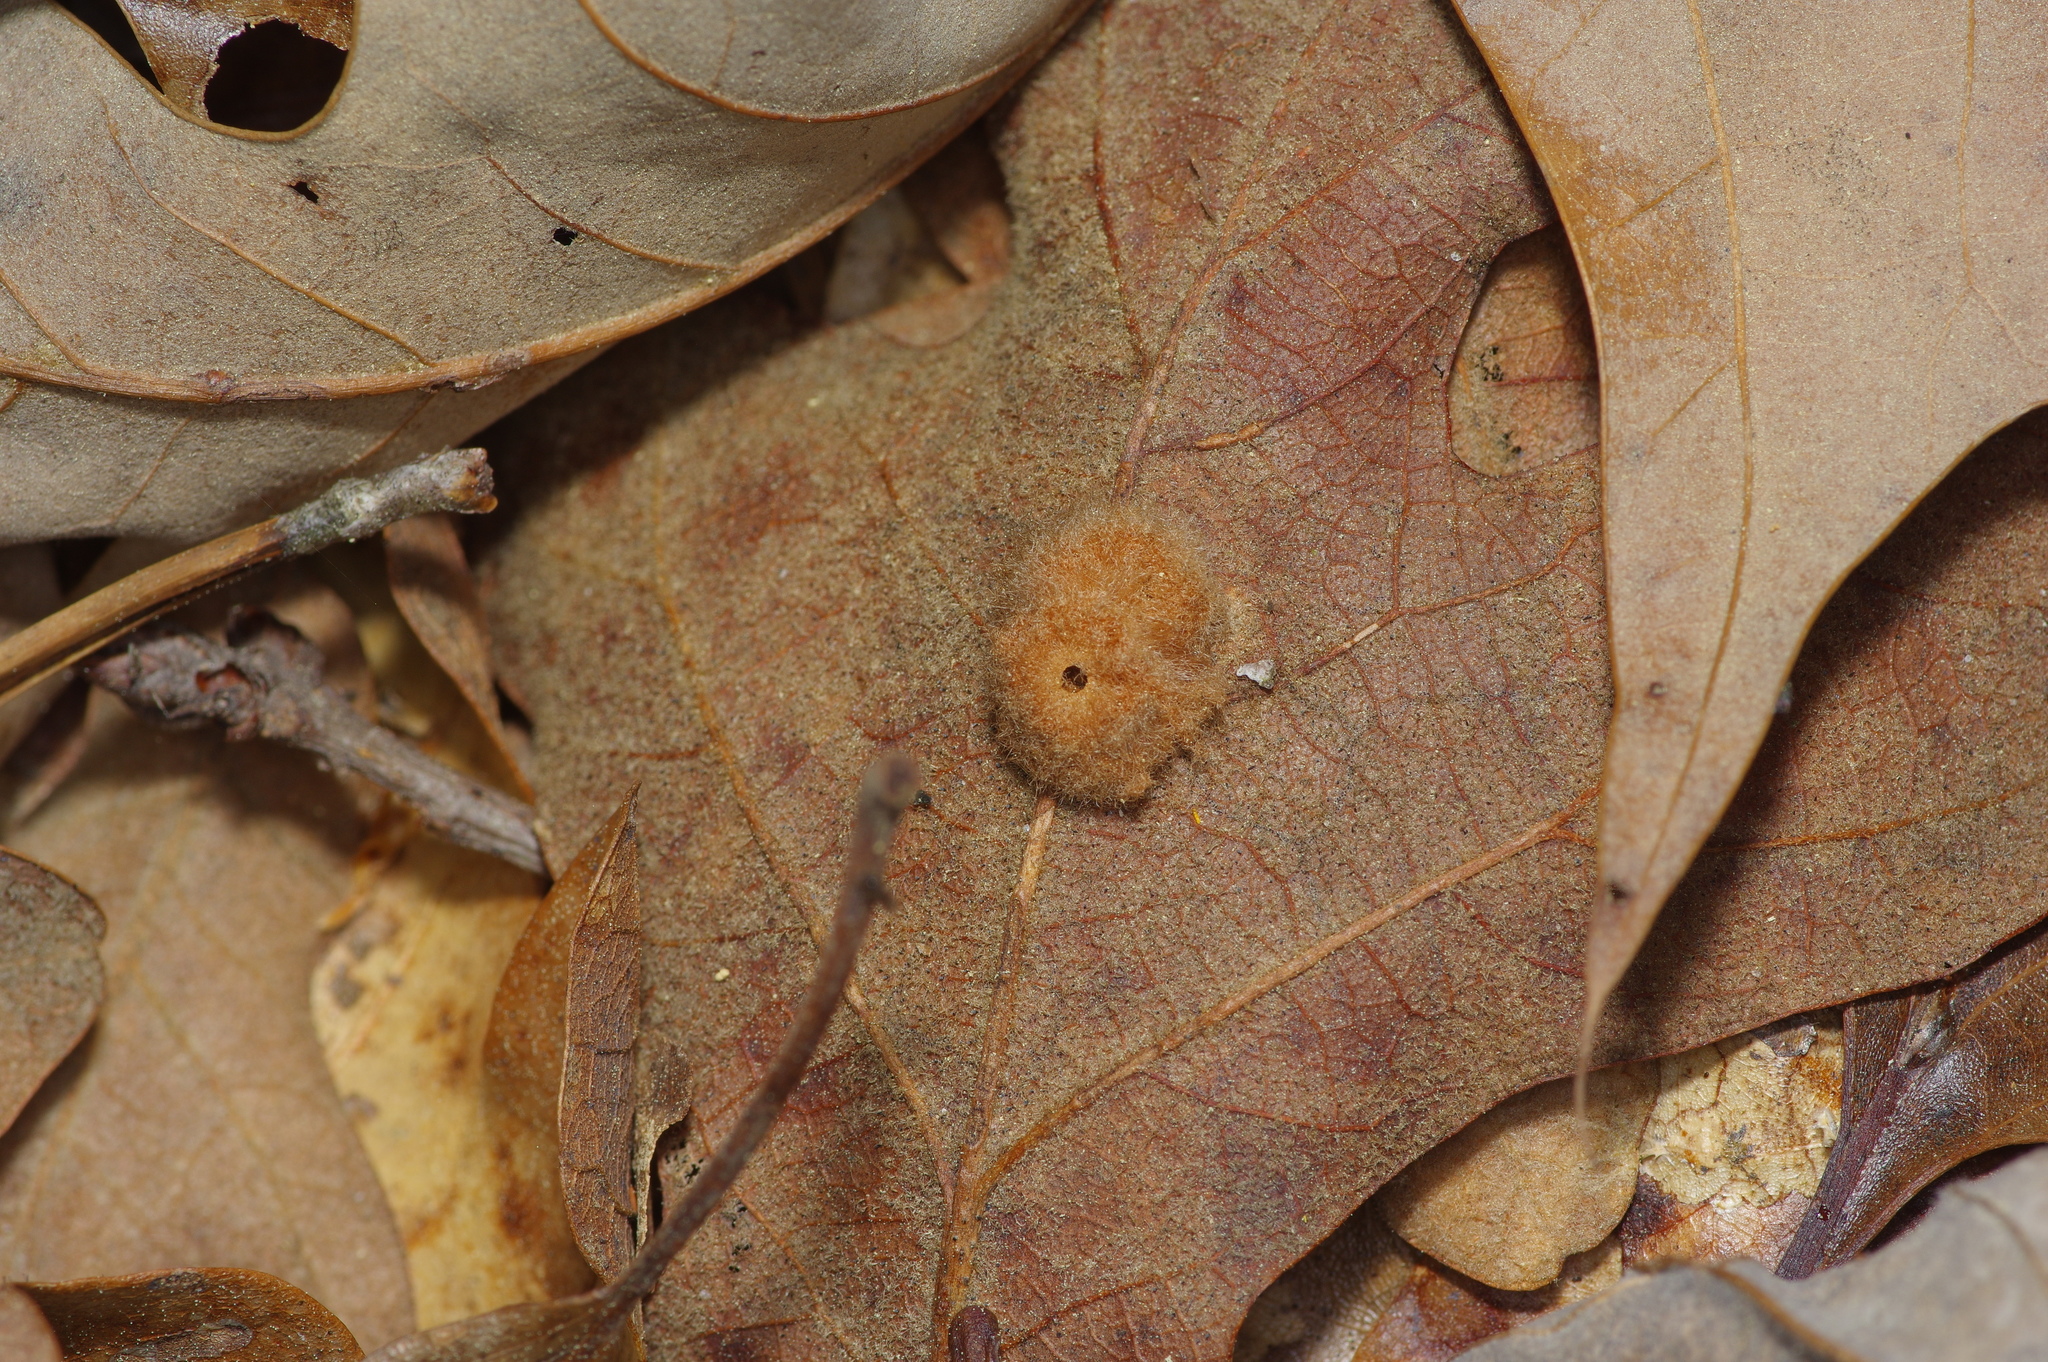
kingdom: Animalia
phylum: Arthropoda
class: Insecta
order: Hymenoptera
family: Cynipidae
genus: Andricus
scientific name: Andricus Druon pattoni
